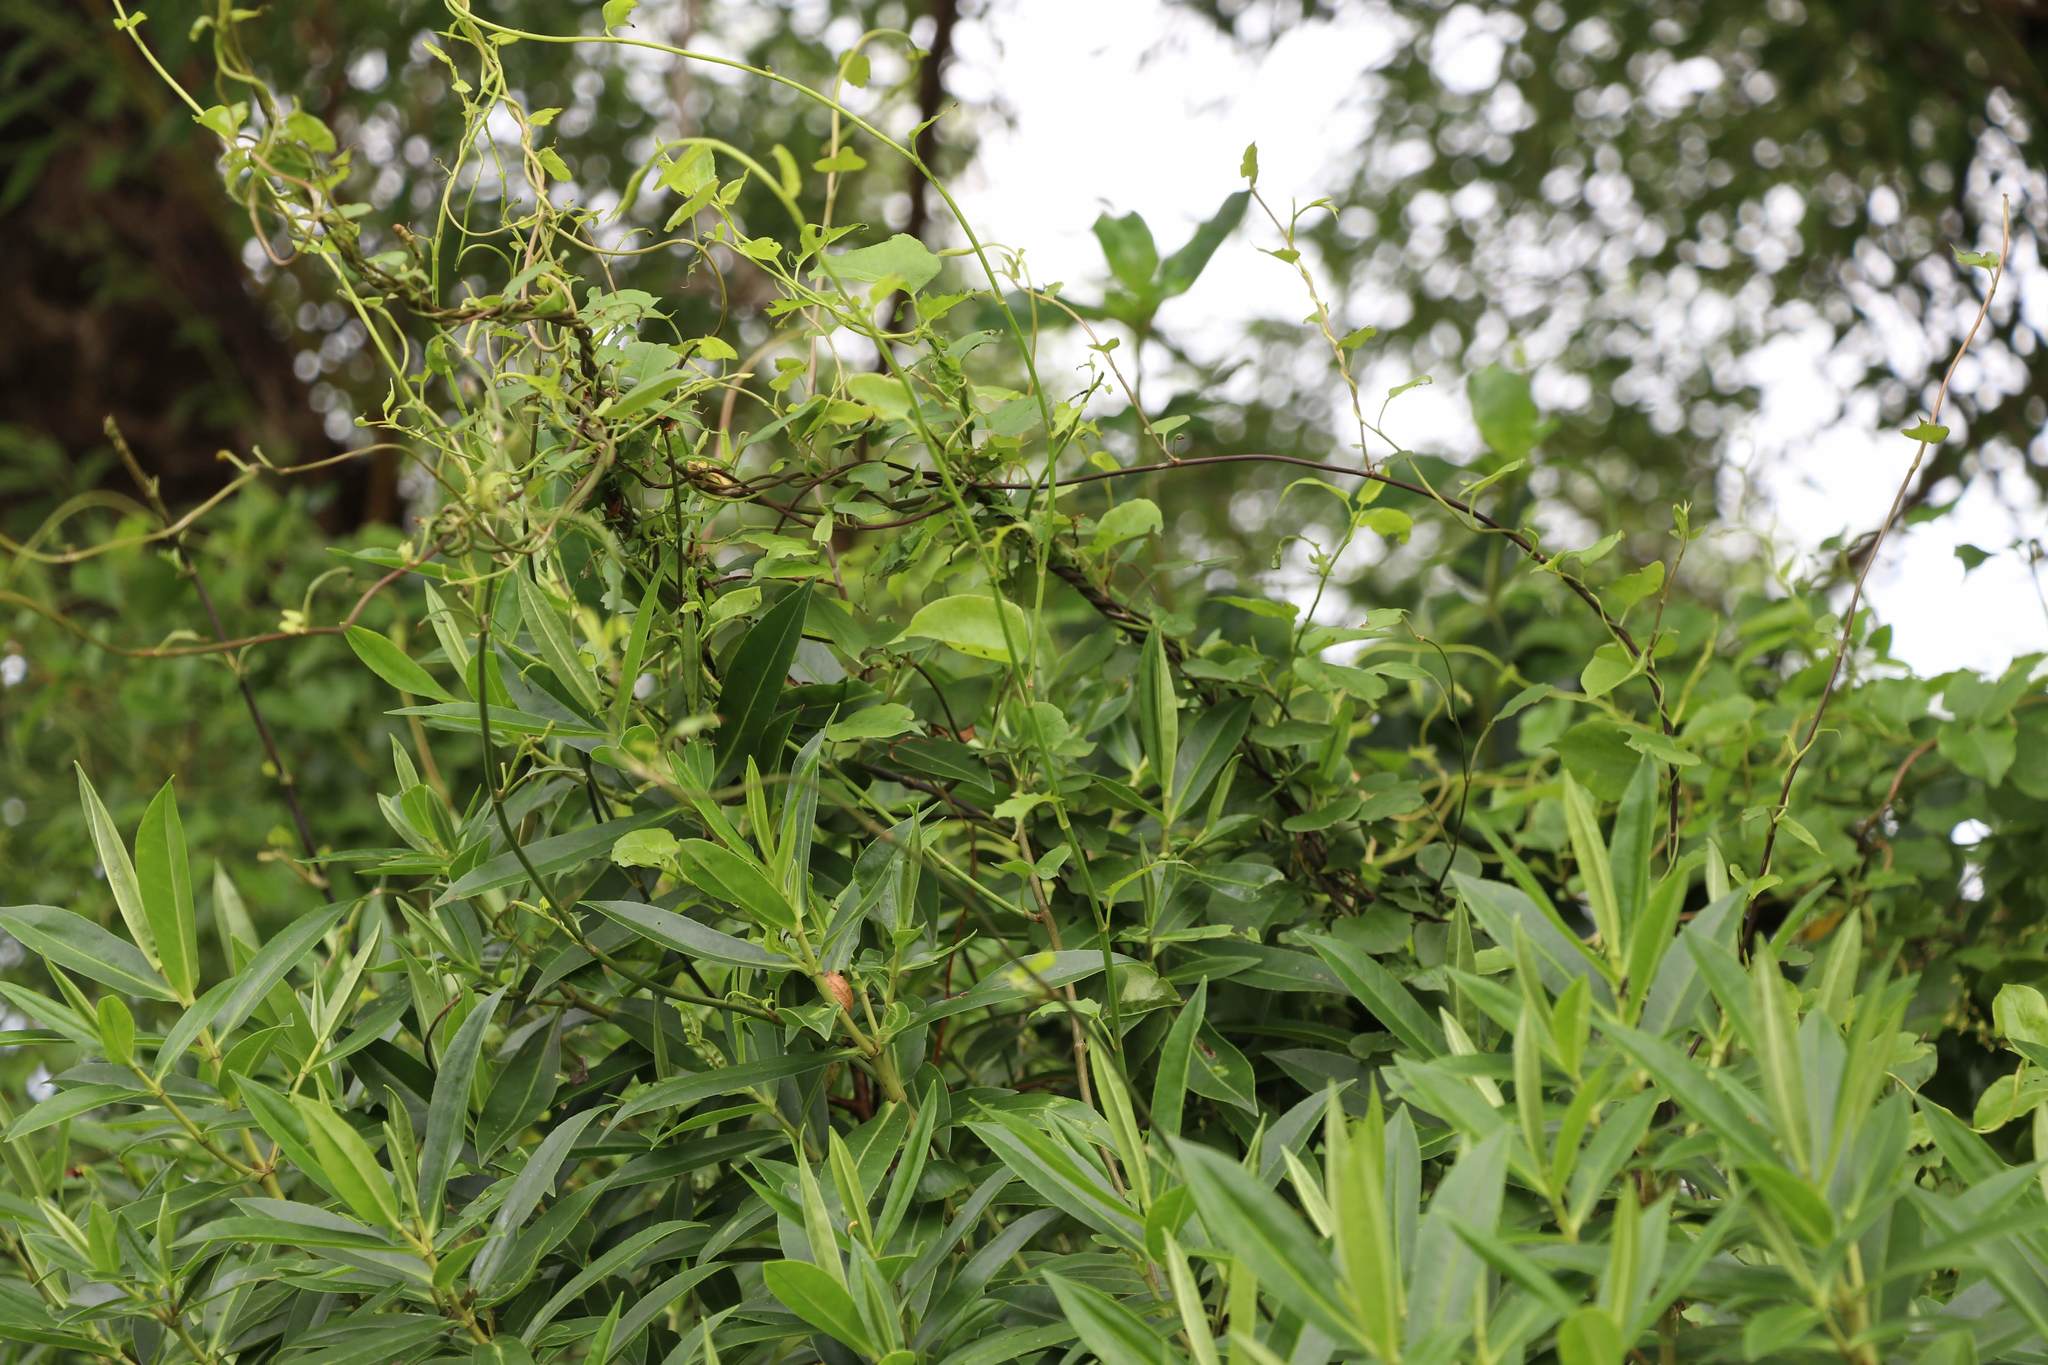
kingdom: Plantae
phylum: Tracheophyta
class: Magnoliopsida
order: Lamiales
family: Plantaginaceae
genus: Veronica
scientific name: Veronica stricta
